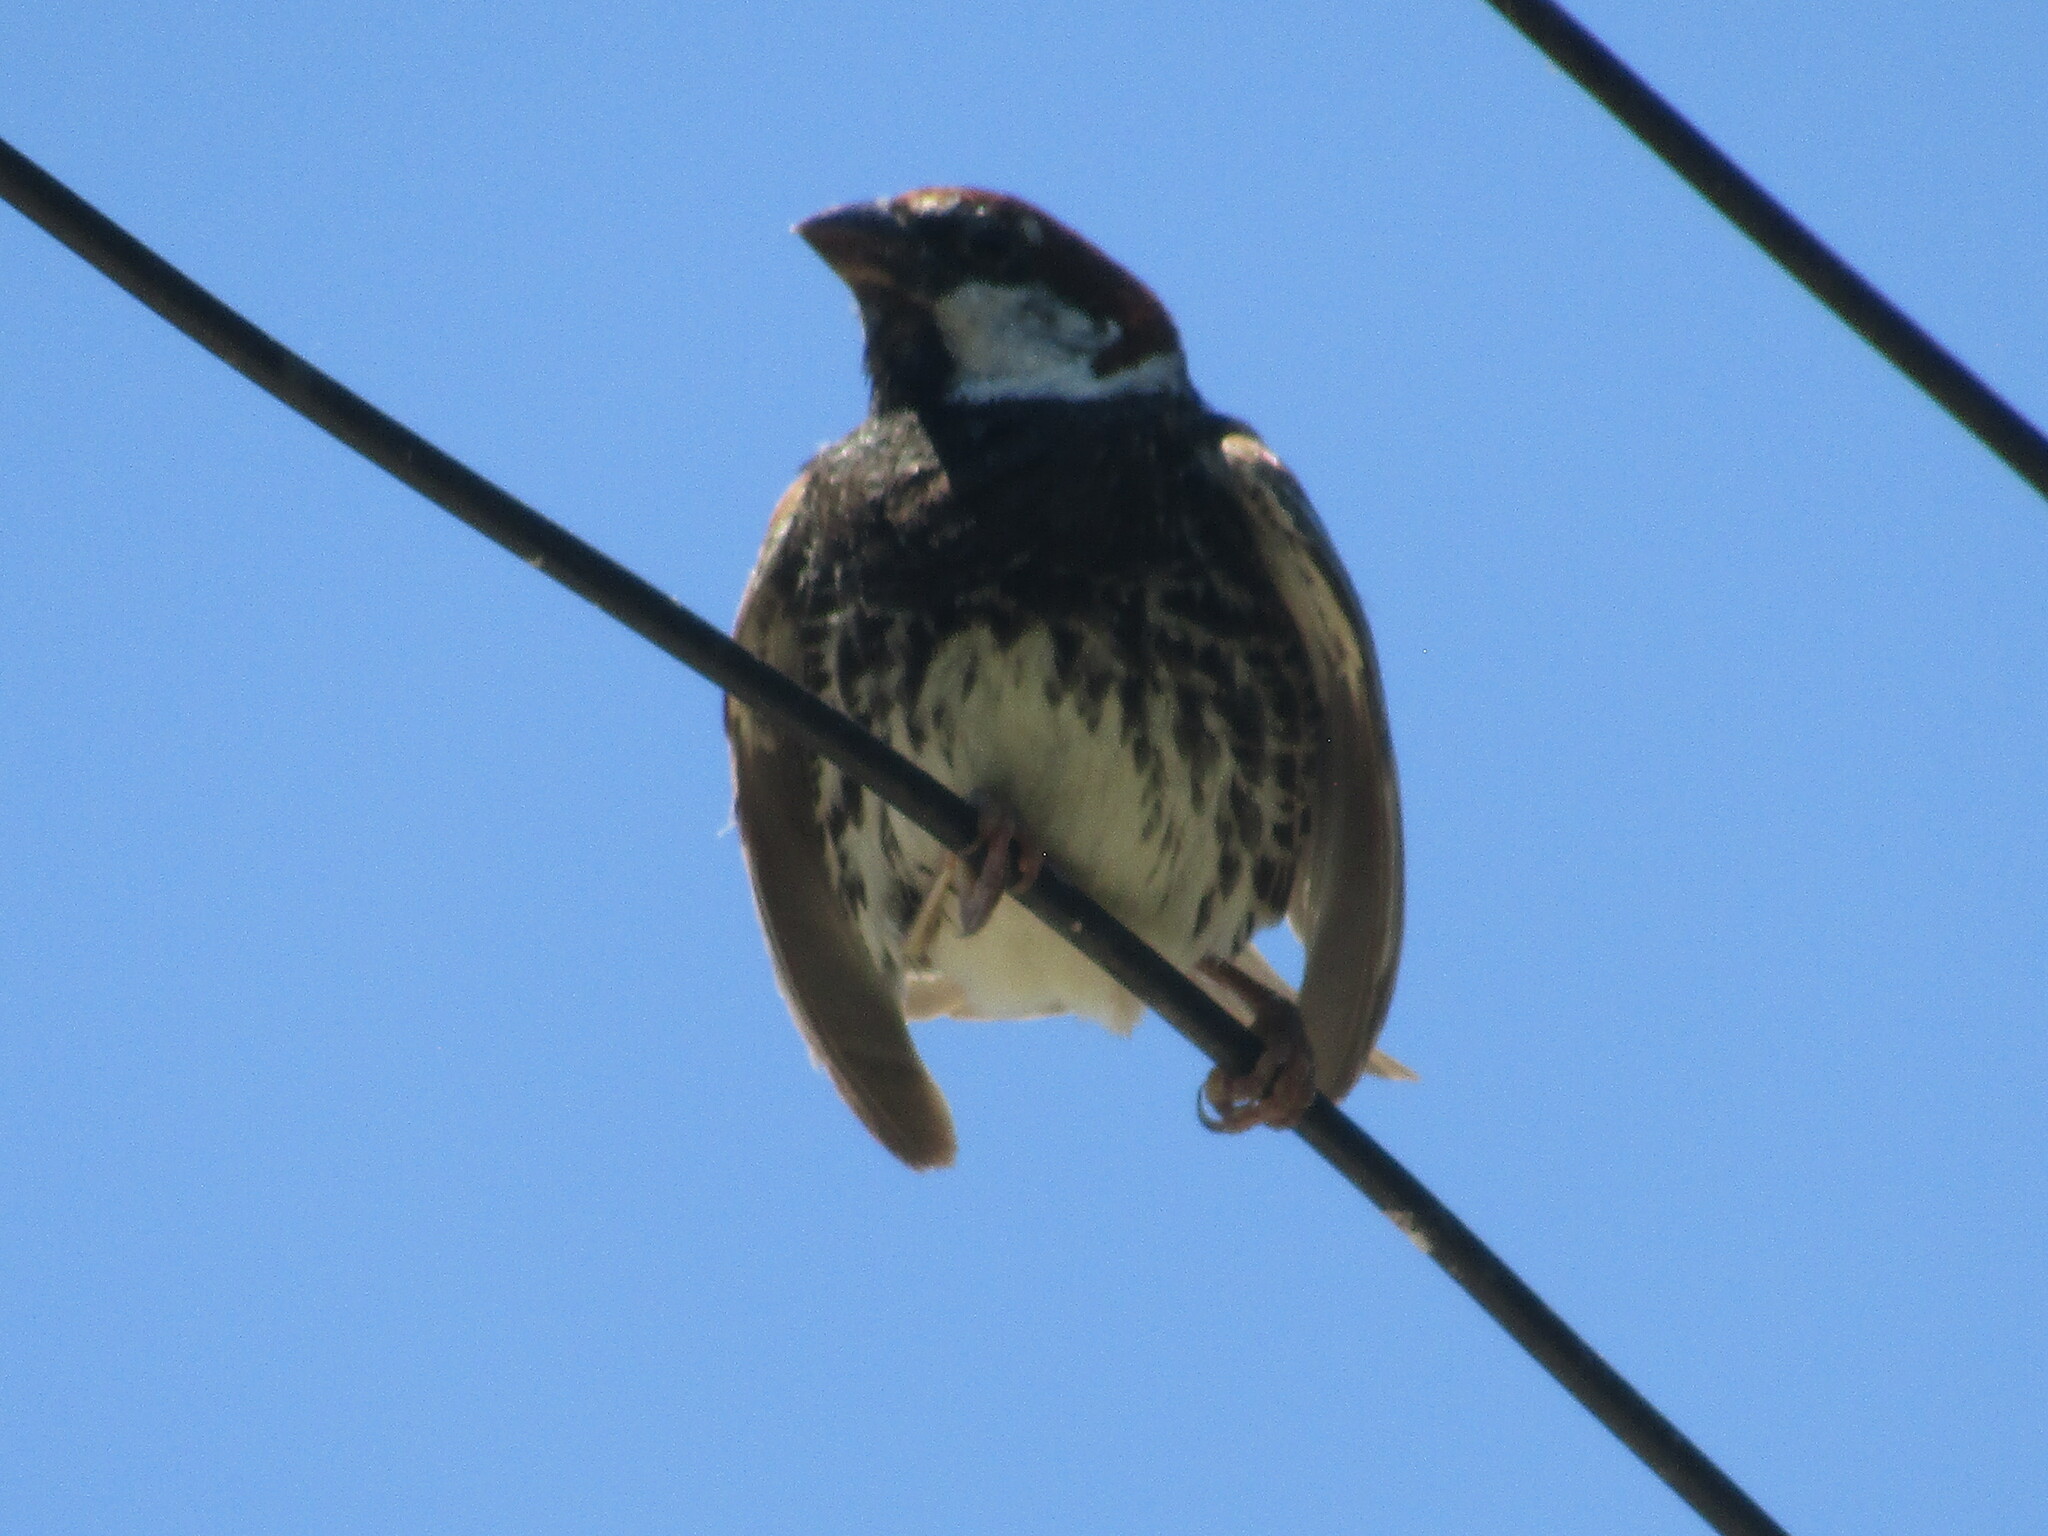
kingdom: Animalia
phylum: Chordata
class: Aves
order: Passeriformes
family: Passeridae
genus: Passer
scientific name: Passer hispaniolensis
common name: Spanish sparrow
